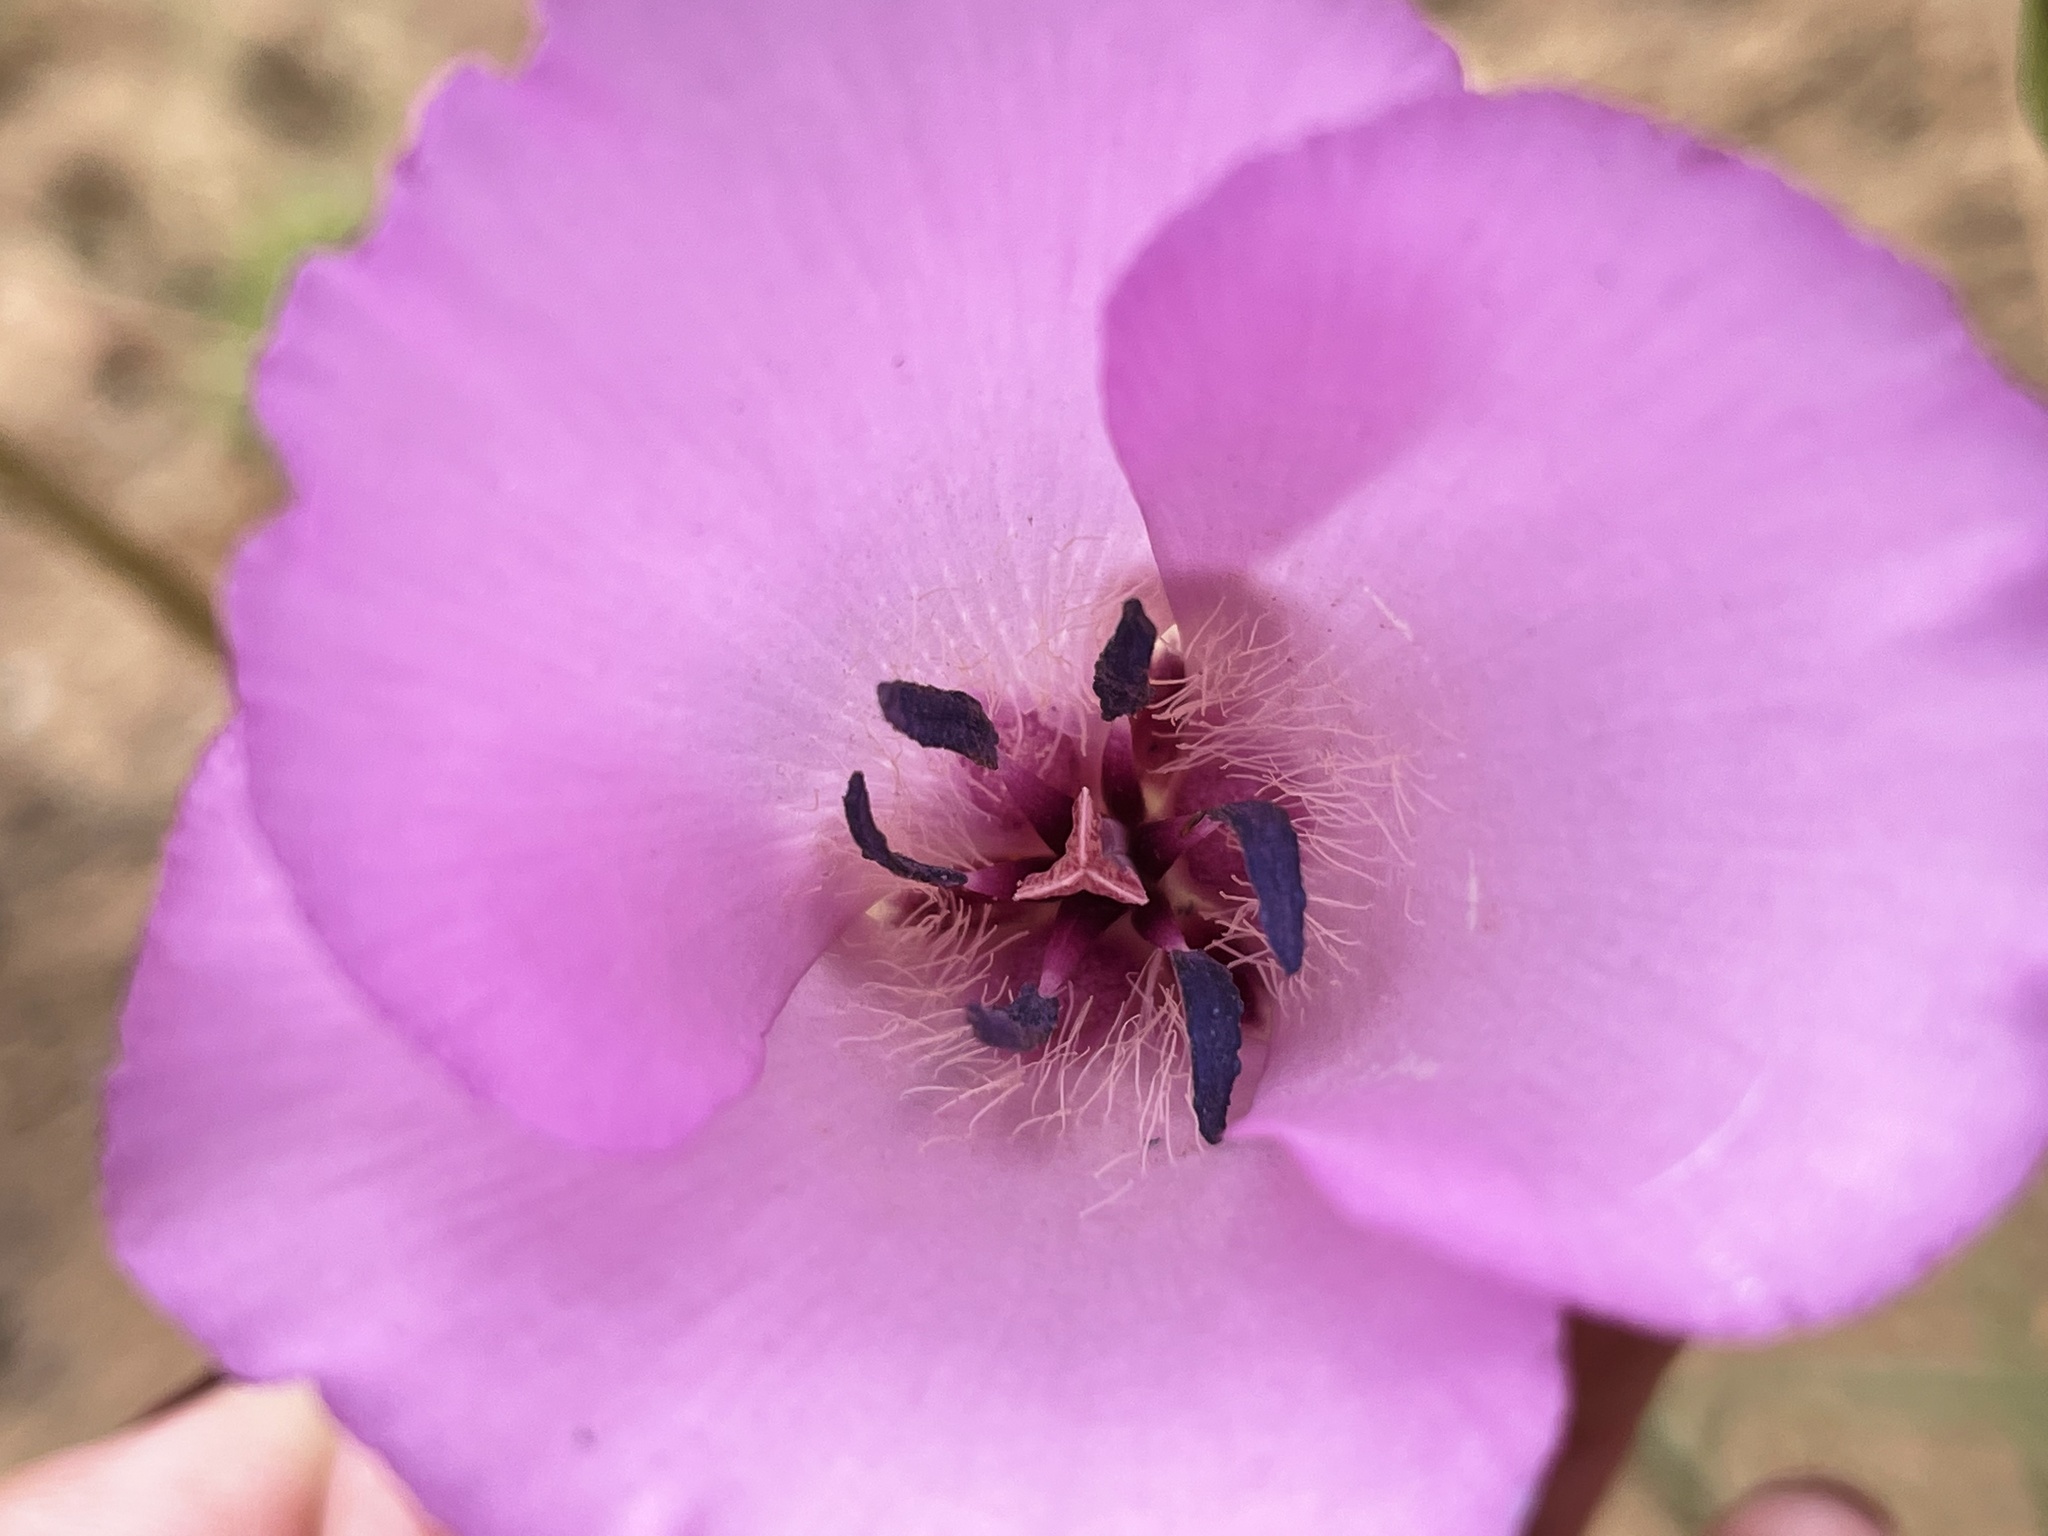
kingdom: Plantae
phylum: Tracheophyta
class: Liliopsida
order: Liliales
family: Liliaceae
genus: Calochortus
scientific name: Calochortus splendens
